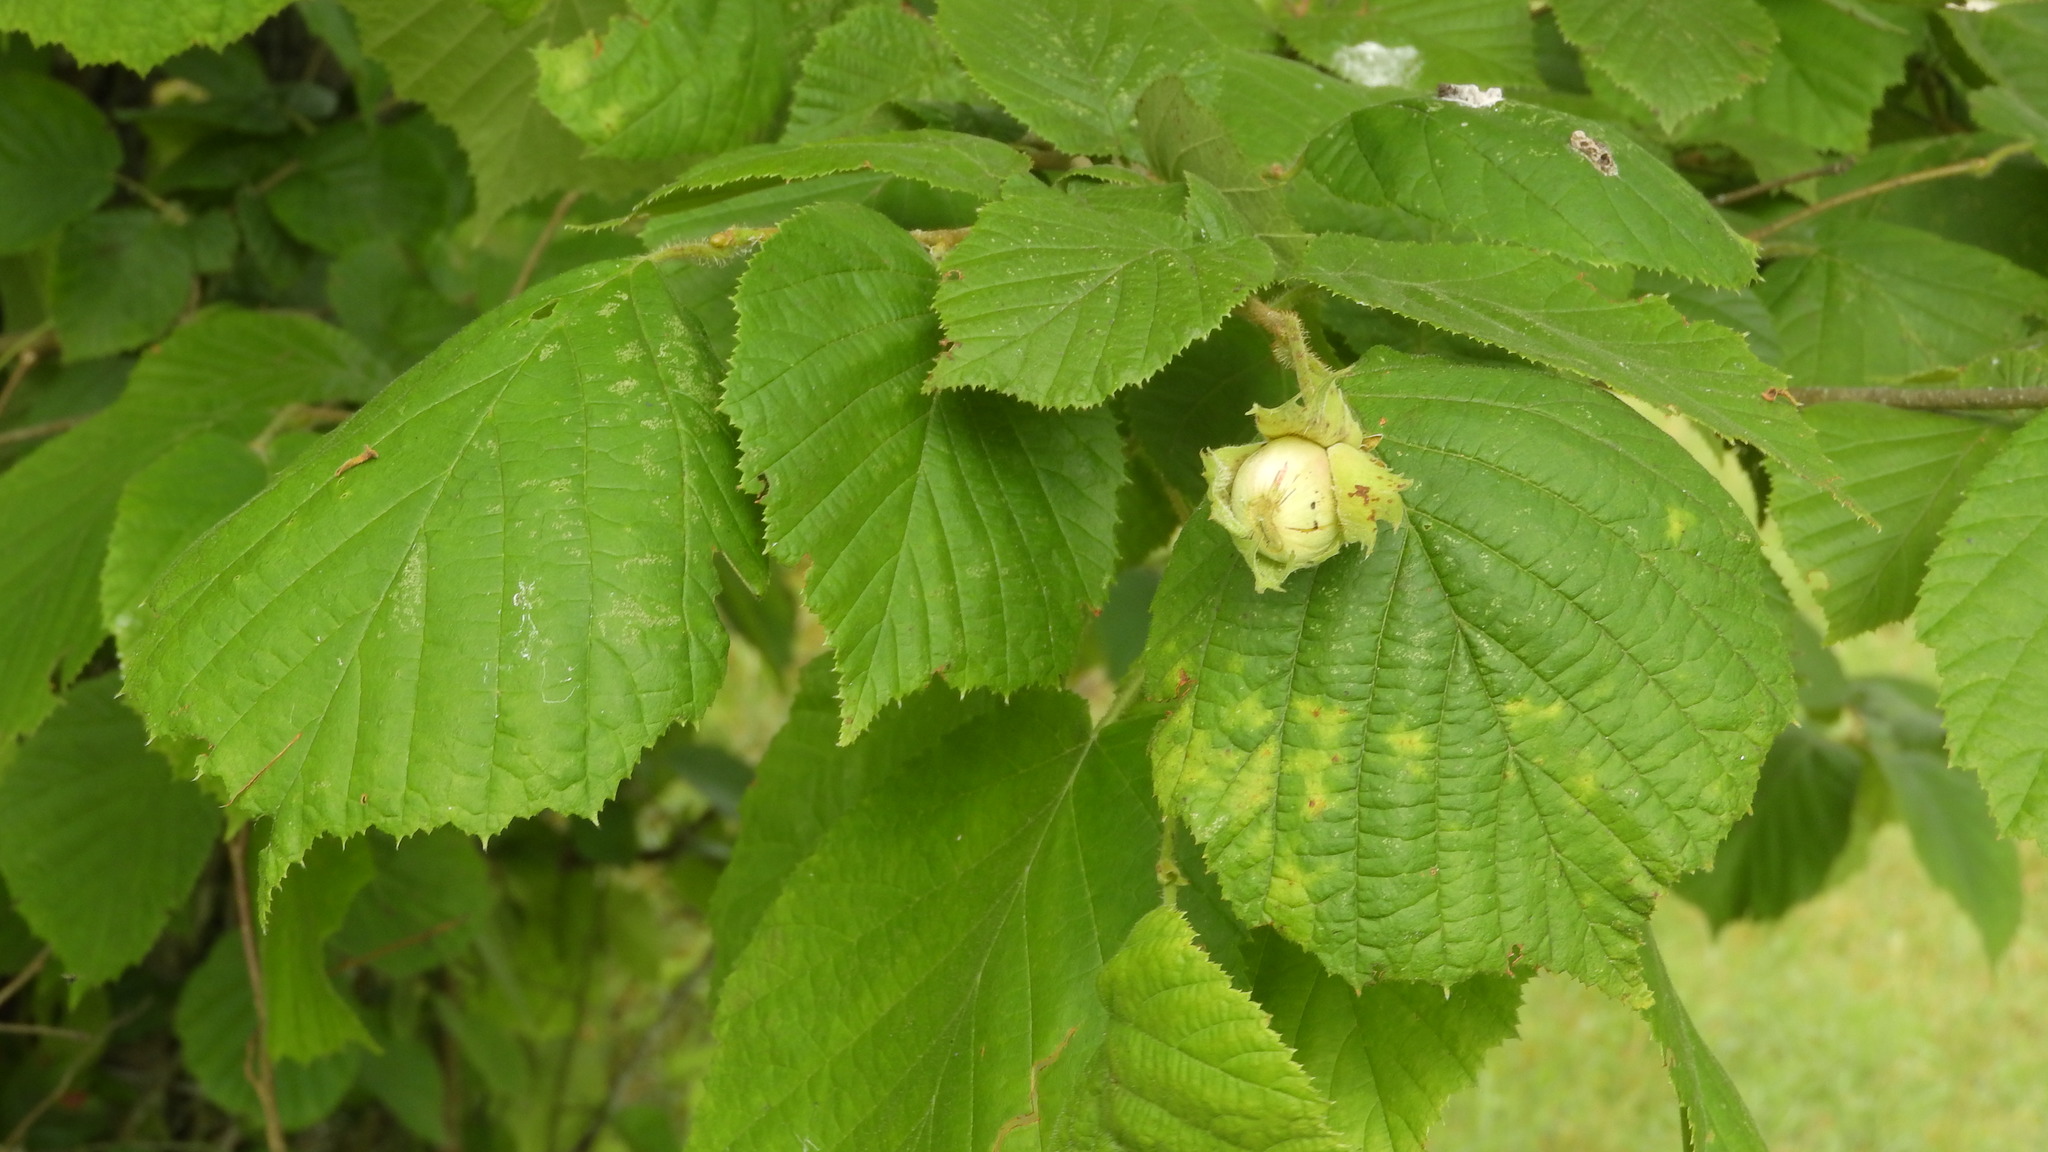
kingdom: Plantae
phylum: Tracheophyta
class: Magnoliopsida
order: Fagales
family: Betulaceae
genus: Corylus
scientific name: Corylus avellana
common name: European hazel
